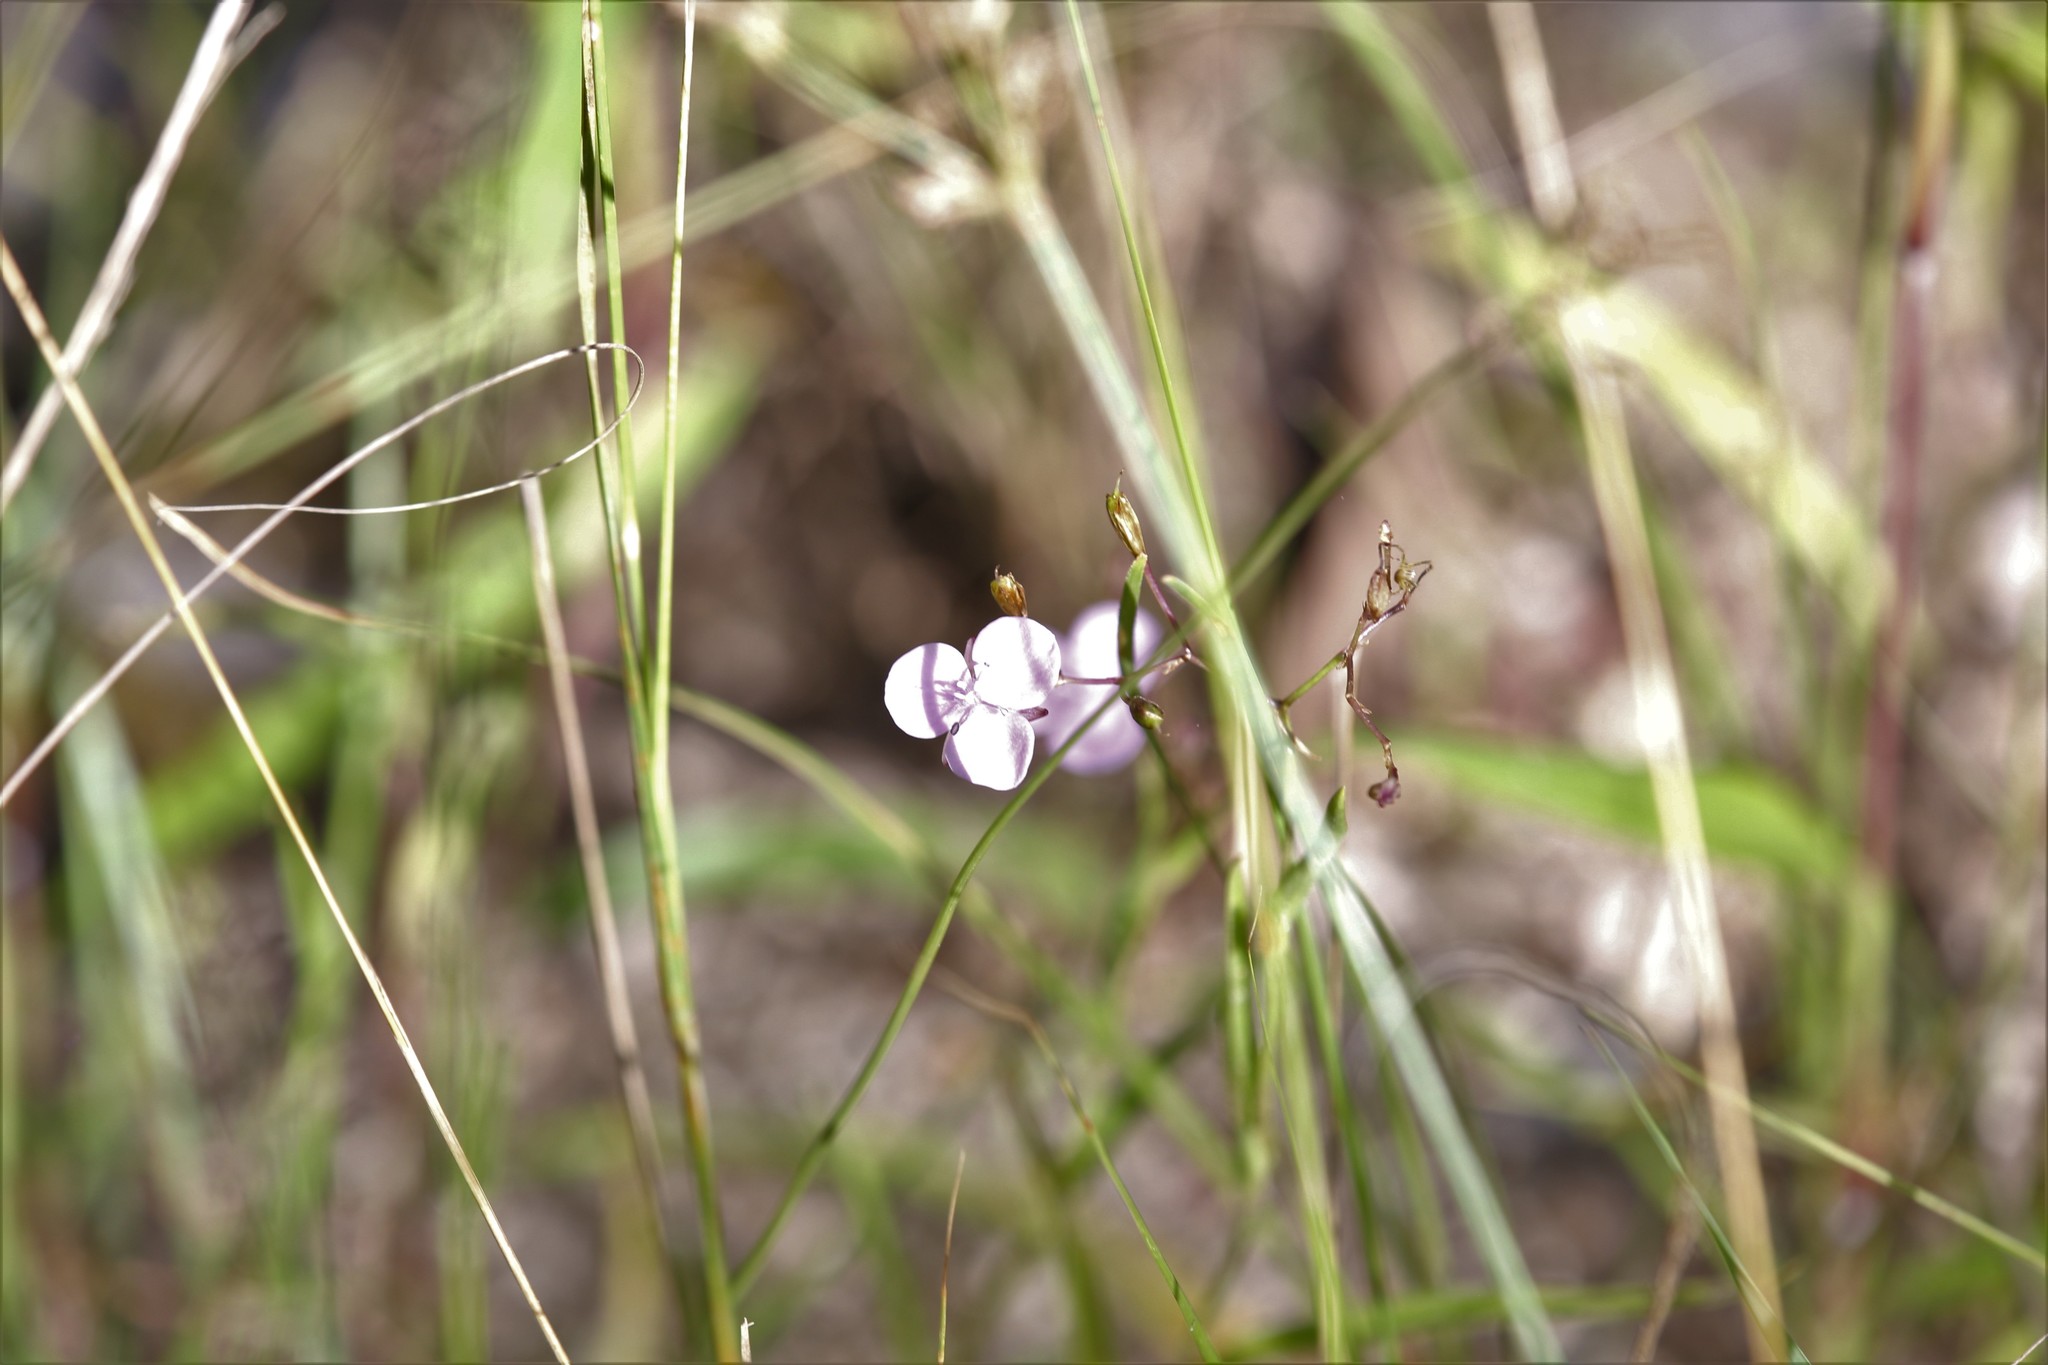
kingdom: Plantae
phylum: Tracheophyta
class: Liliopsida
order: Commelinales
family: Commelinaceae
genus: Murdannia
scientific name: Murdannia graminea
